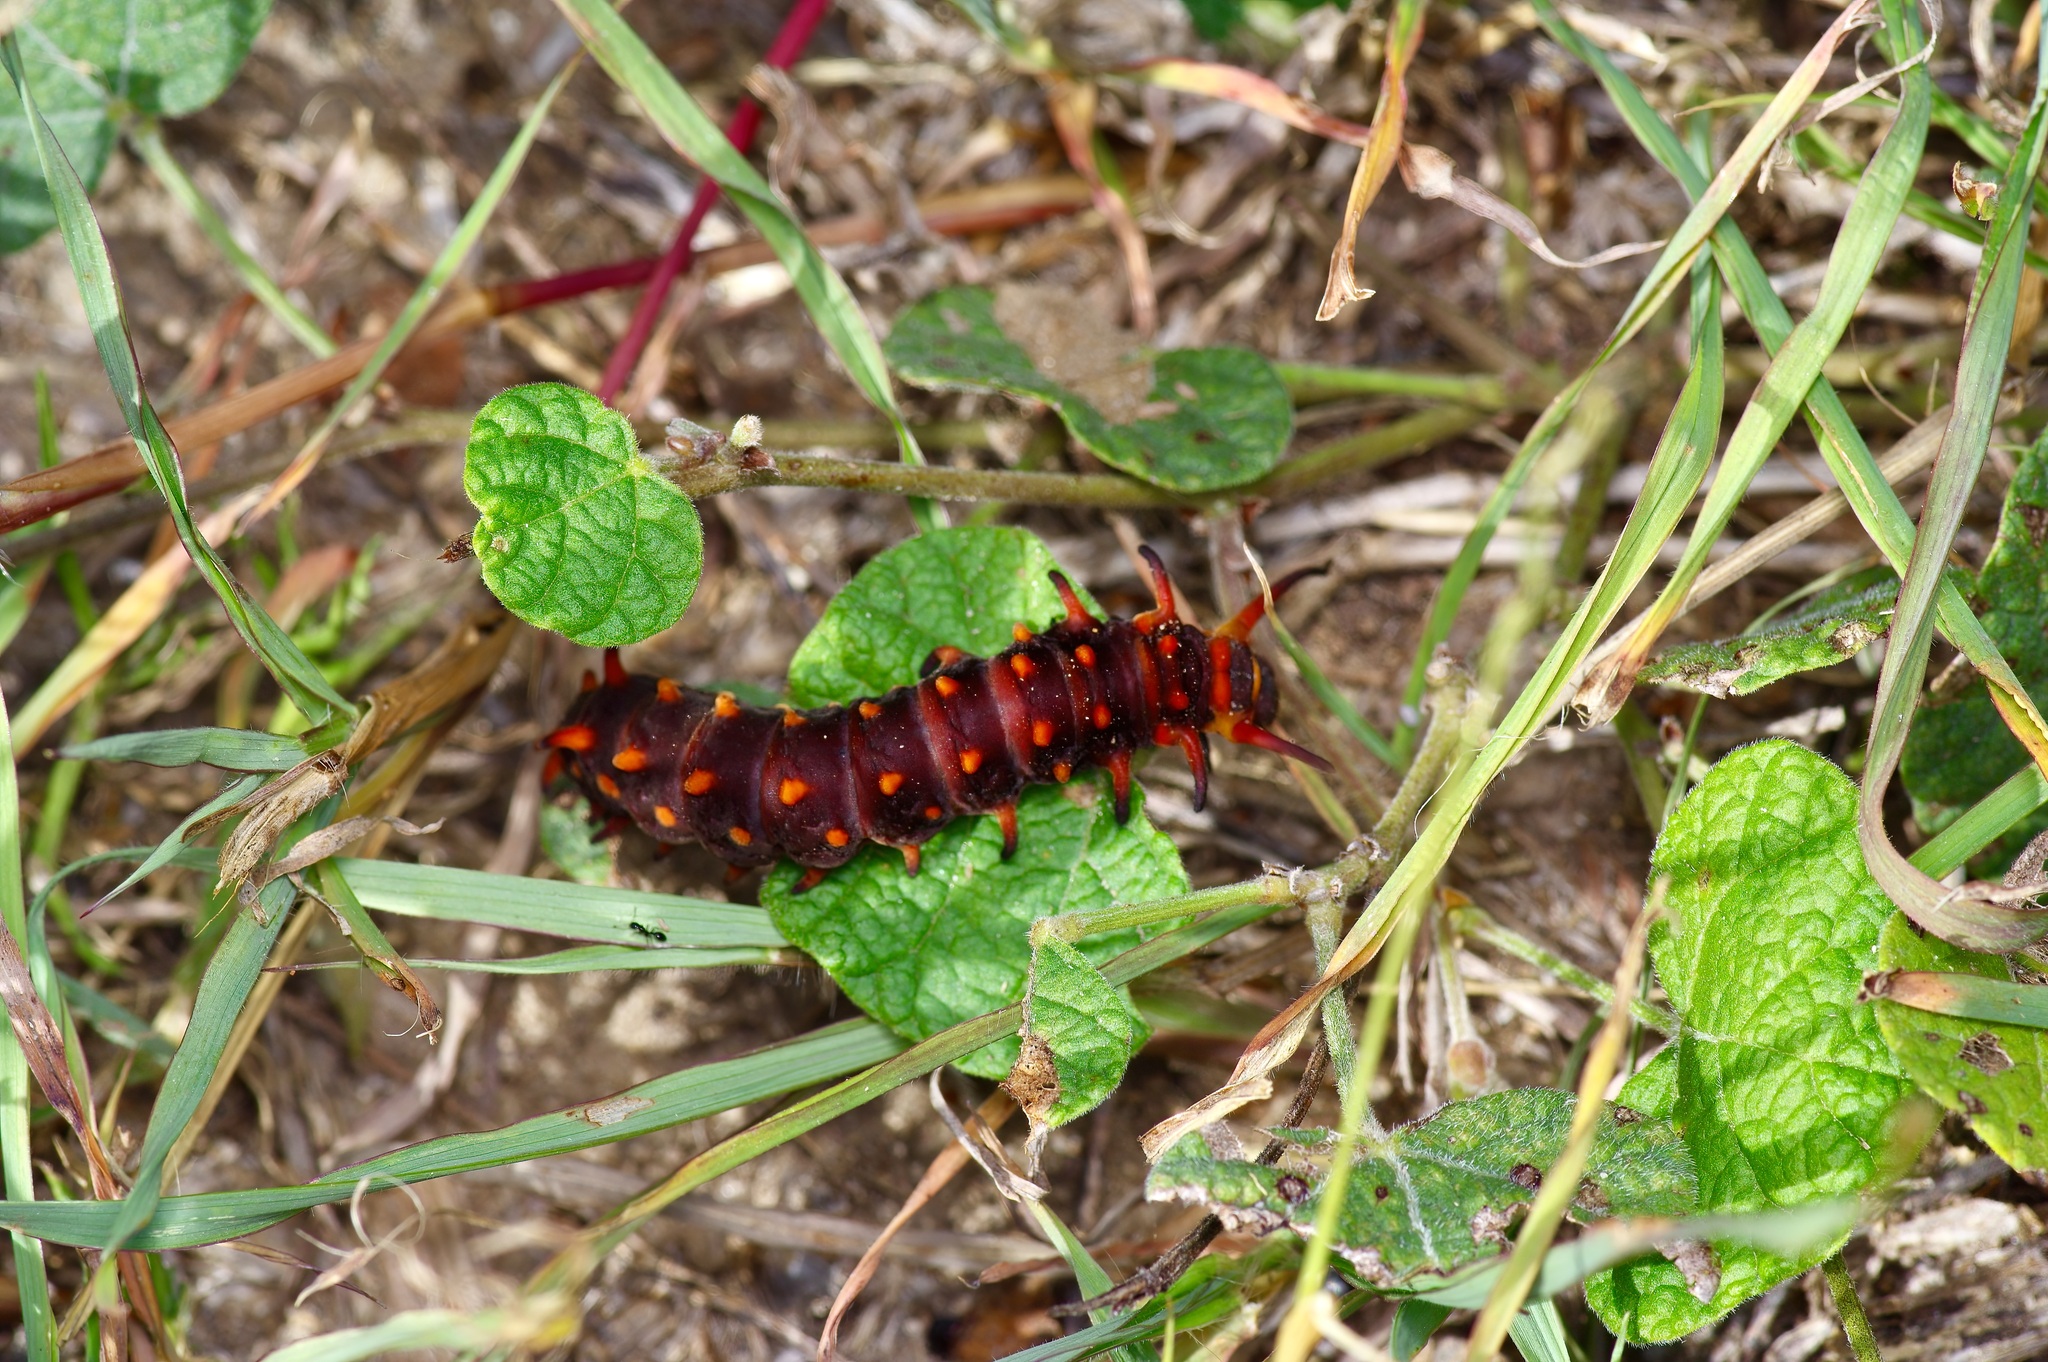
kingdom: Animalia
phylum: Arthropoda
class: Insecta
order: Lepidoptera
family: Papilionidae
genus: Battus
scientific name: Battus philenor
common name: Pipevine swallowtail
